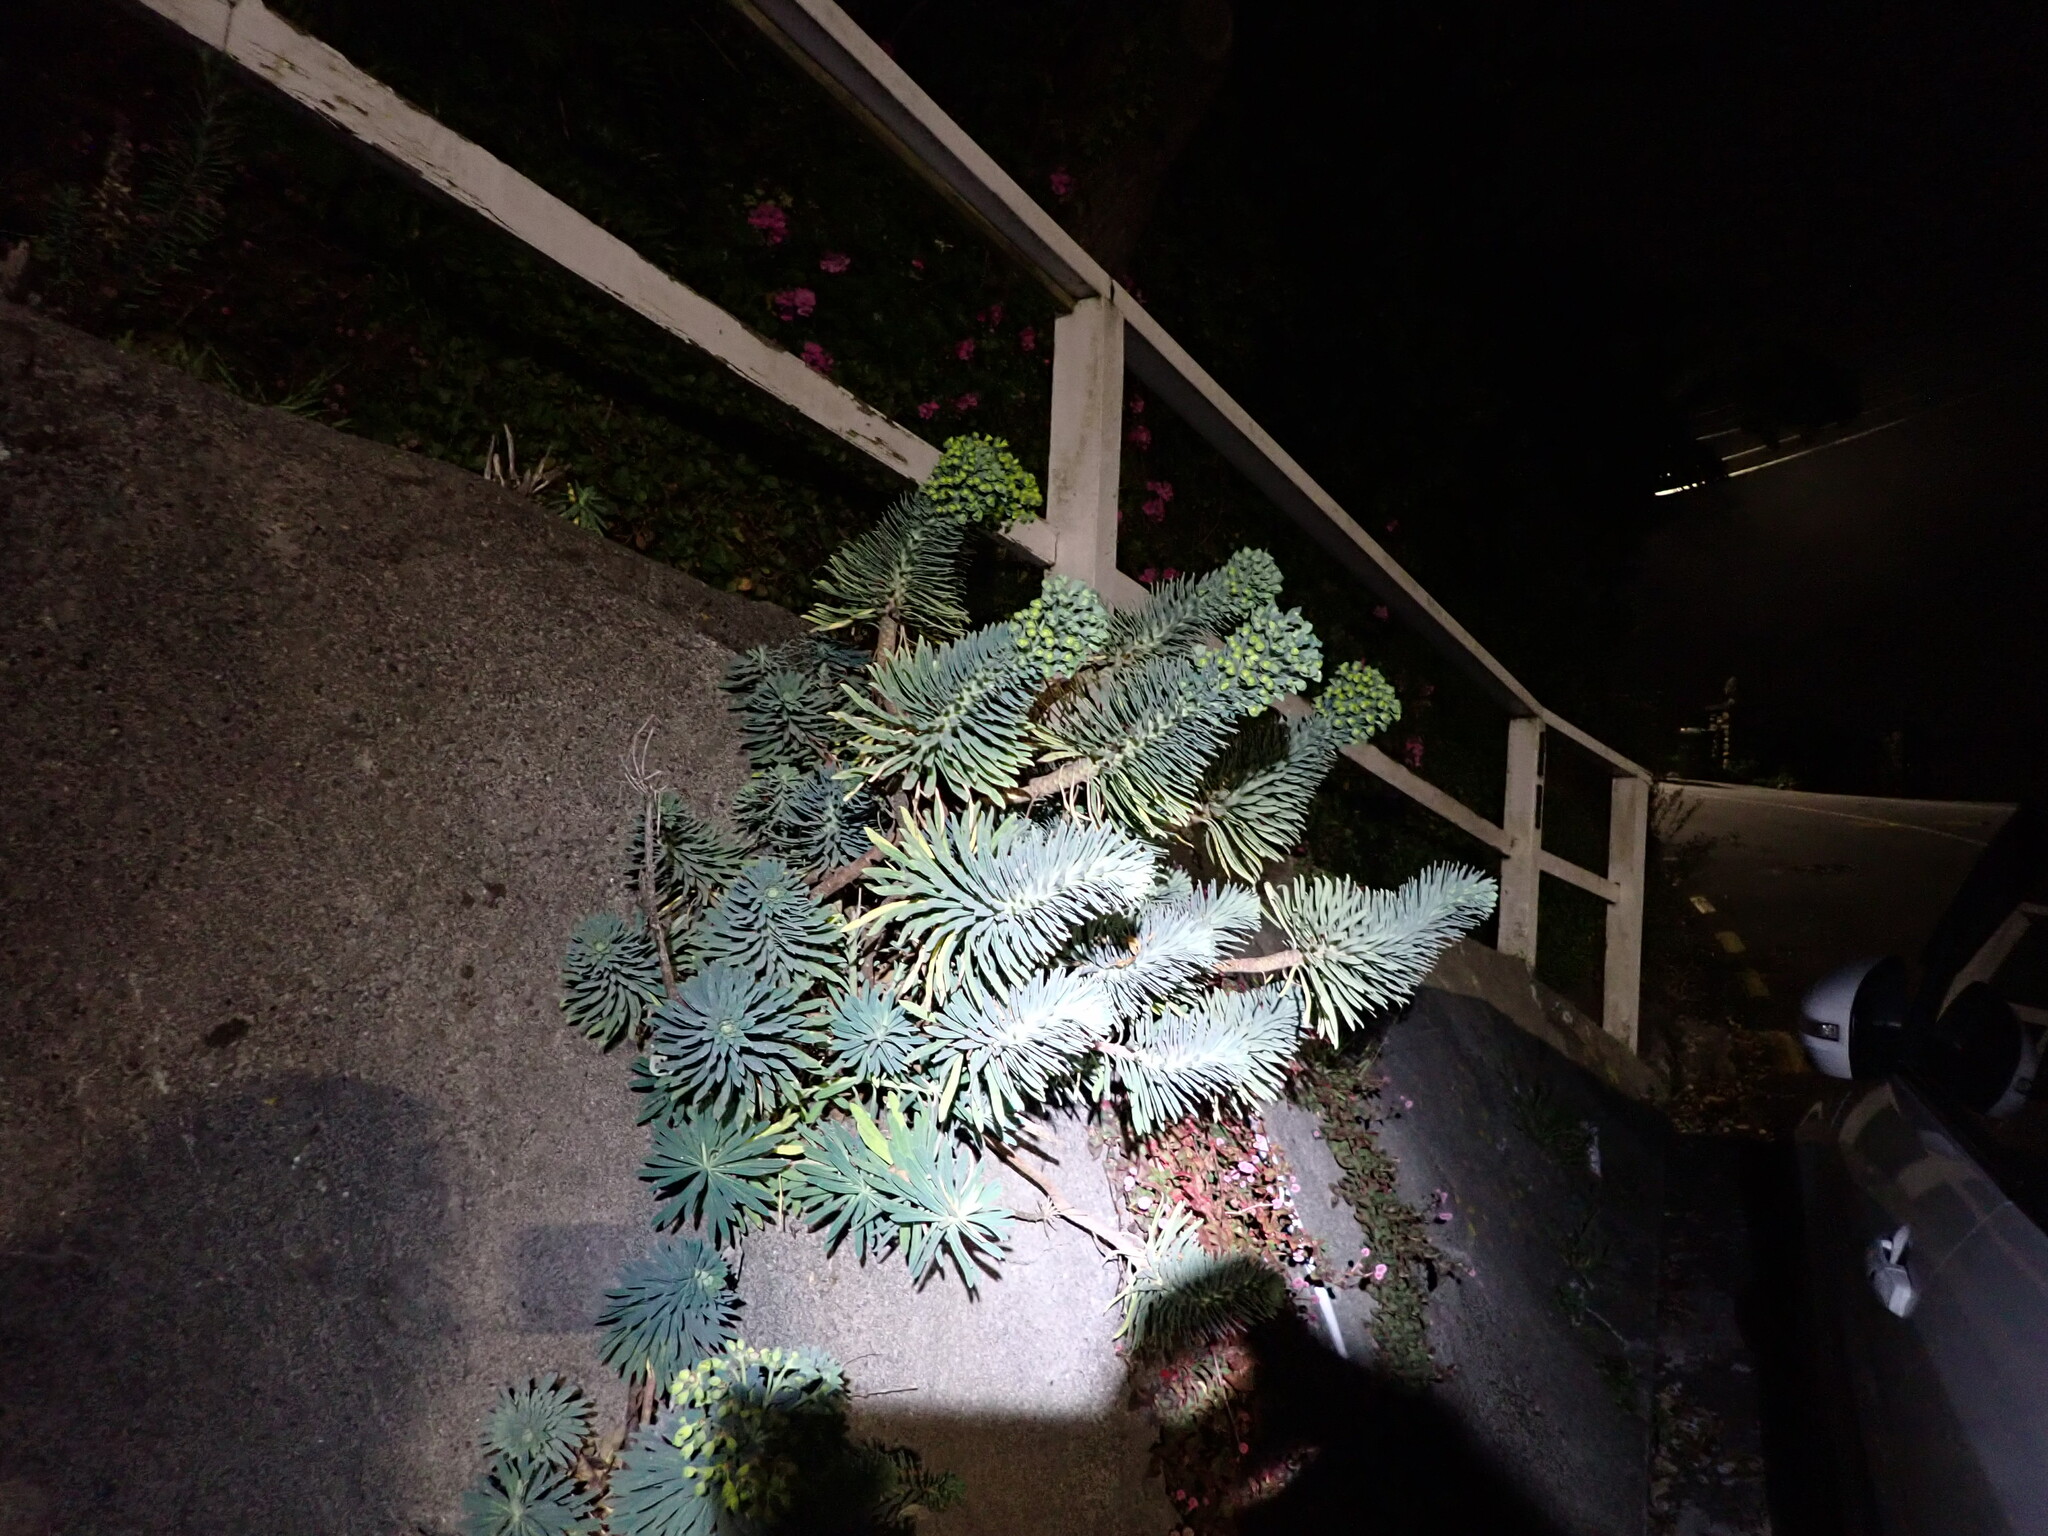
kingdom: Plantae
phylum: Tracheophyta
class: Magnoliopsida
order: Malpighiales
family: Euphorbiaceae
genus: Euphorbia
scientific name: Euphorbia characias
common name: Mediterranean spurge
